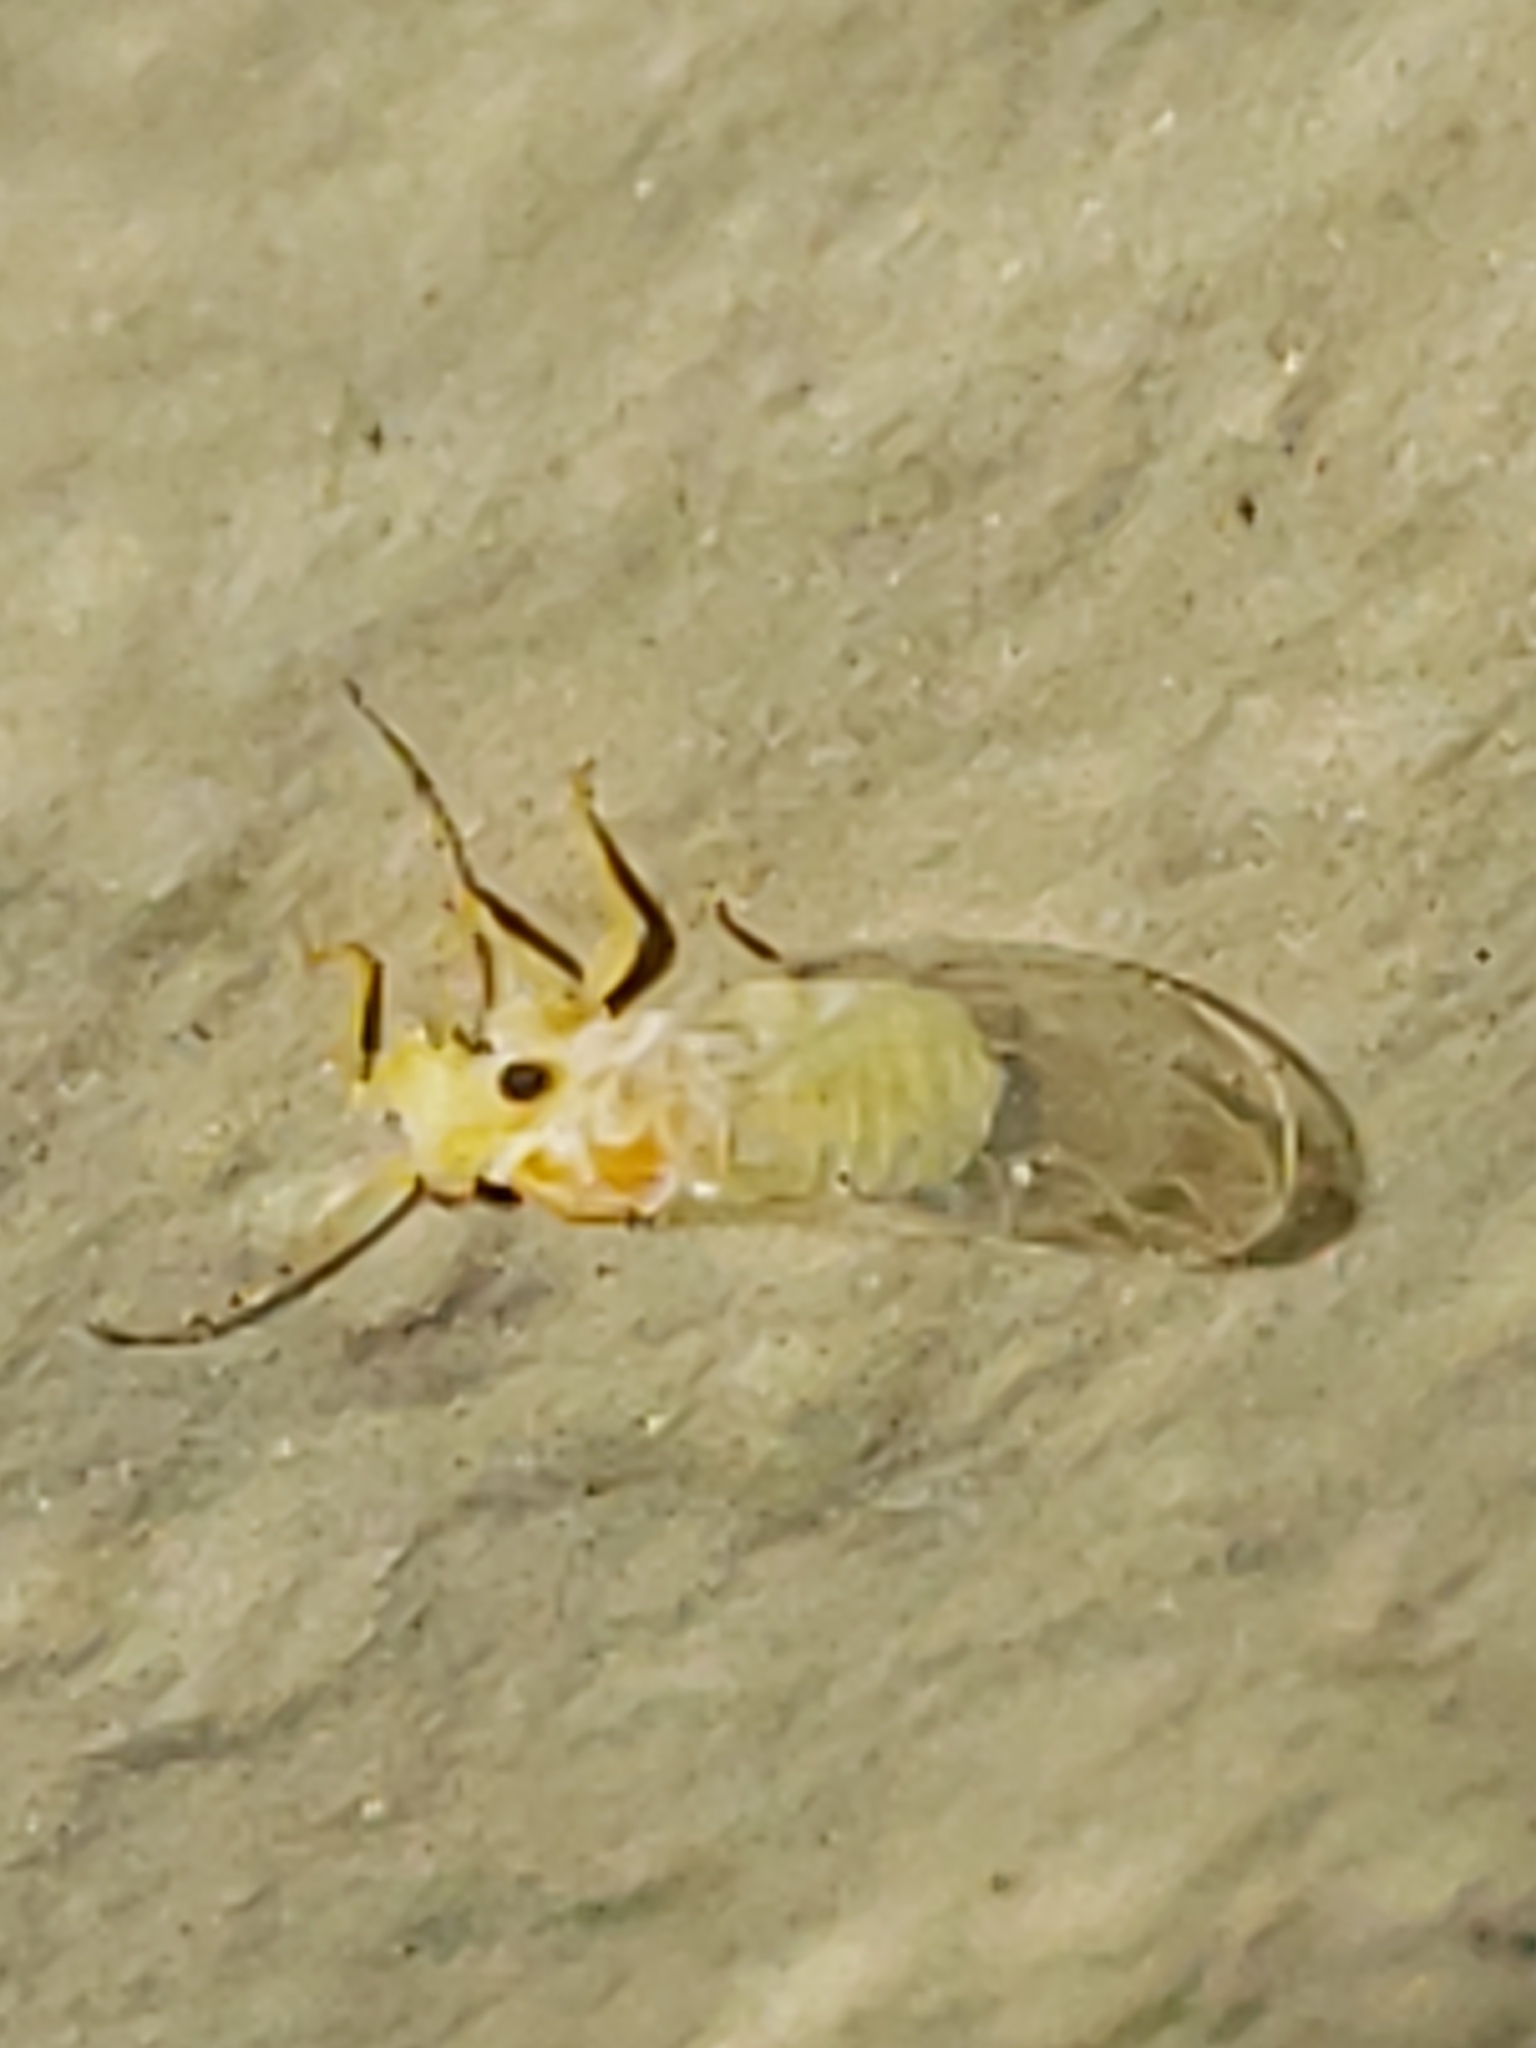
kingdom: Animalia
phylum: Arthropoda
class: Insecta
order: Hemiptera
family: Psyllidae
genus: Cacopsylla
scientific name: Cacopsylla annulata
